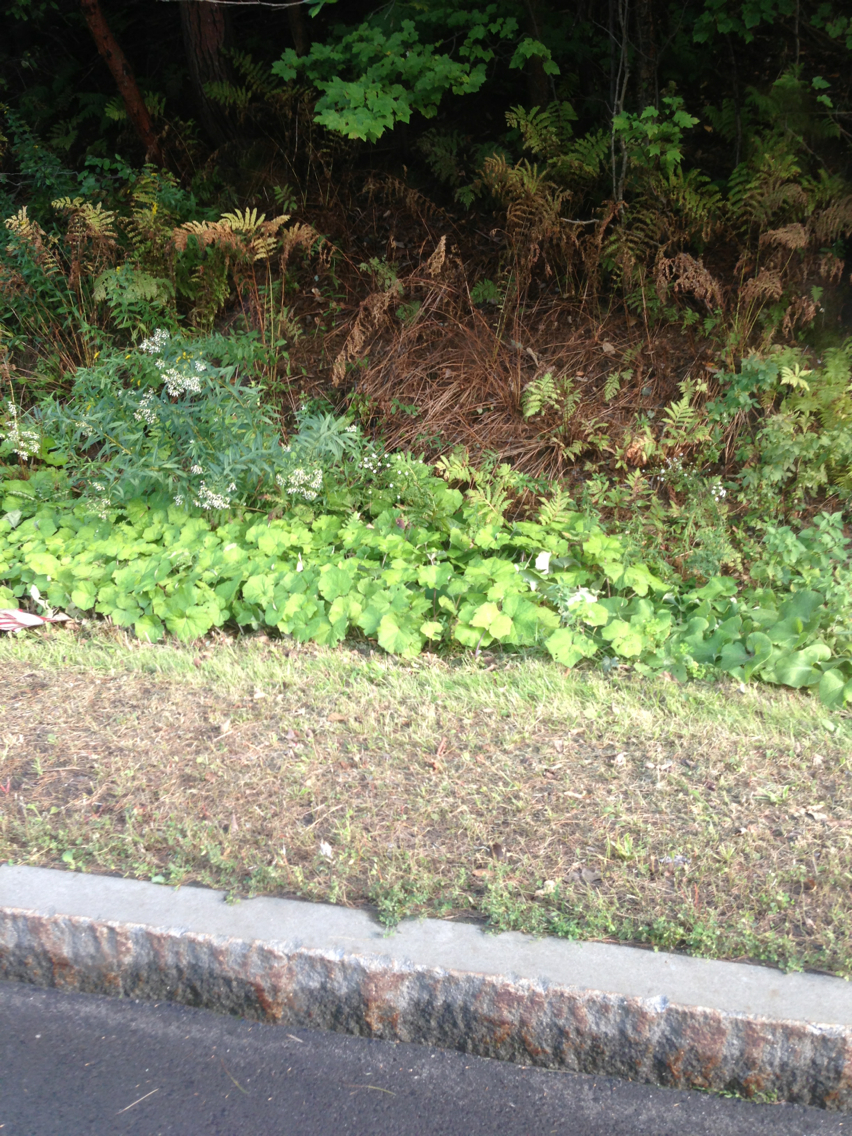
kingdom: Plantae
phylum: Tracheophyta
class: Magnoliopsida
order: Asterales
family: Asteraceae
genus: Tussilago
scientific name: Tussilago farfara
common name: Coltsfoot
